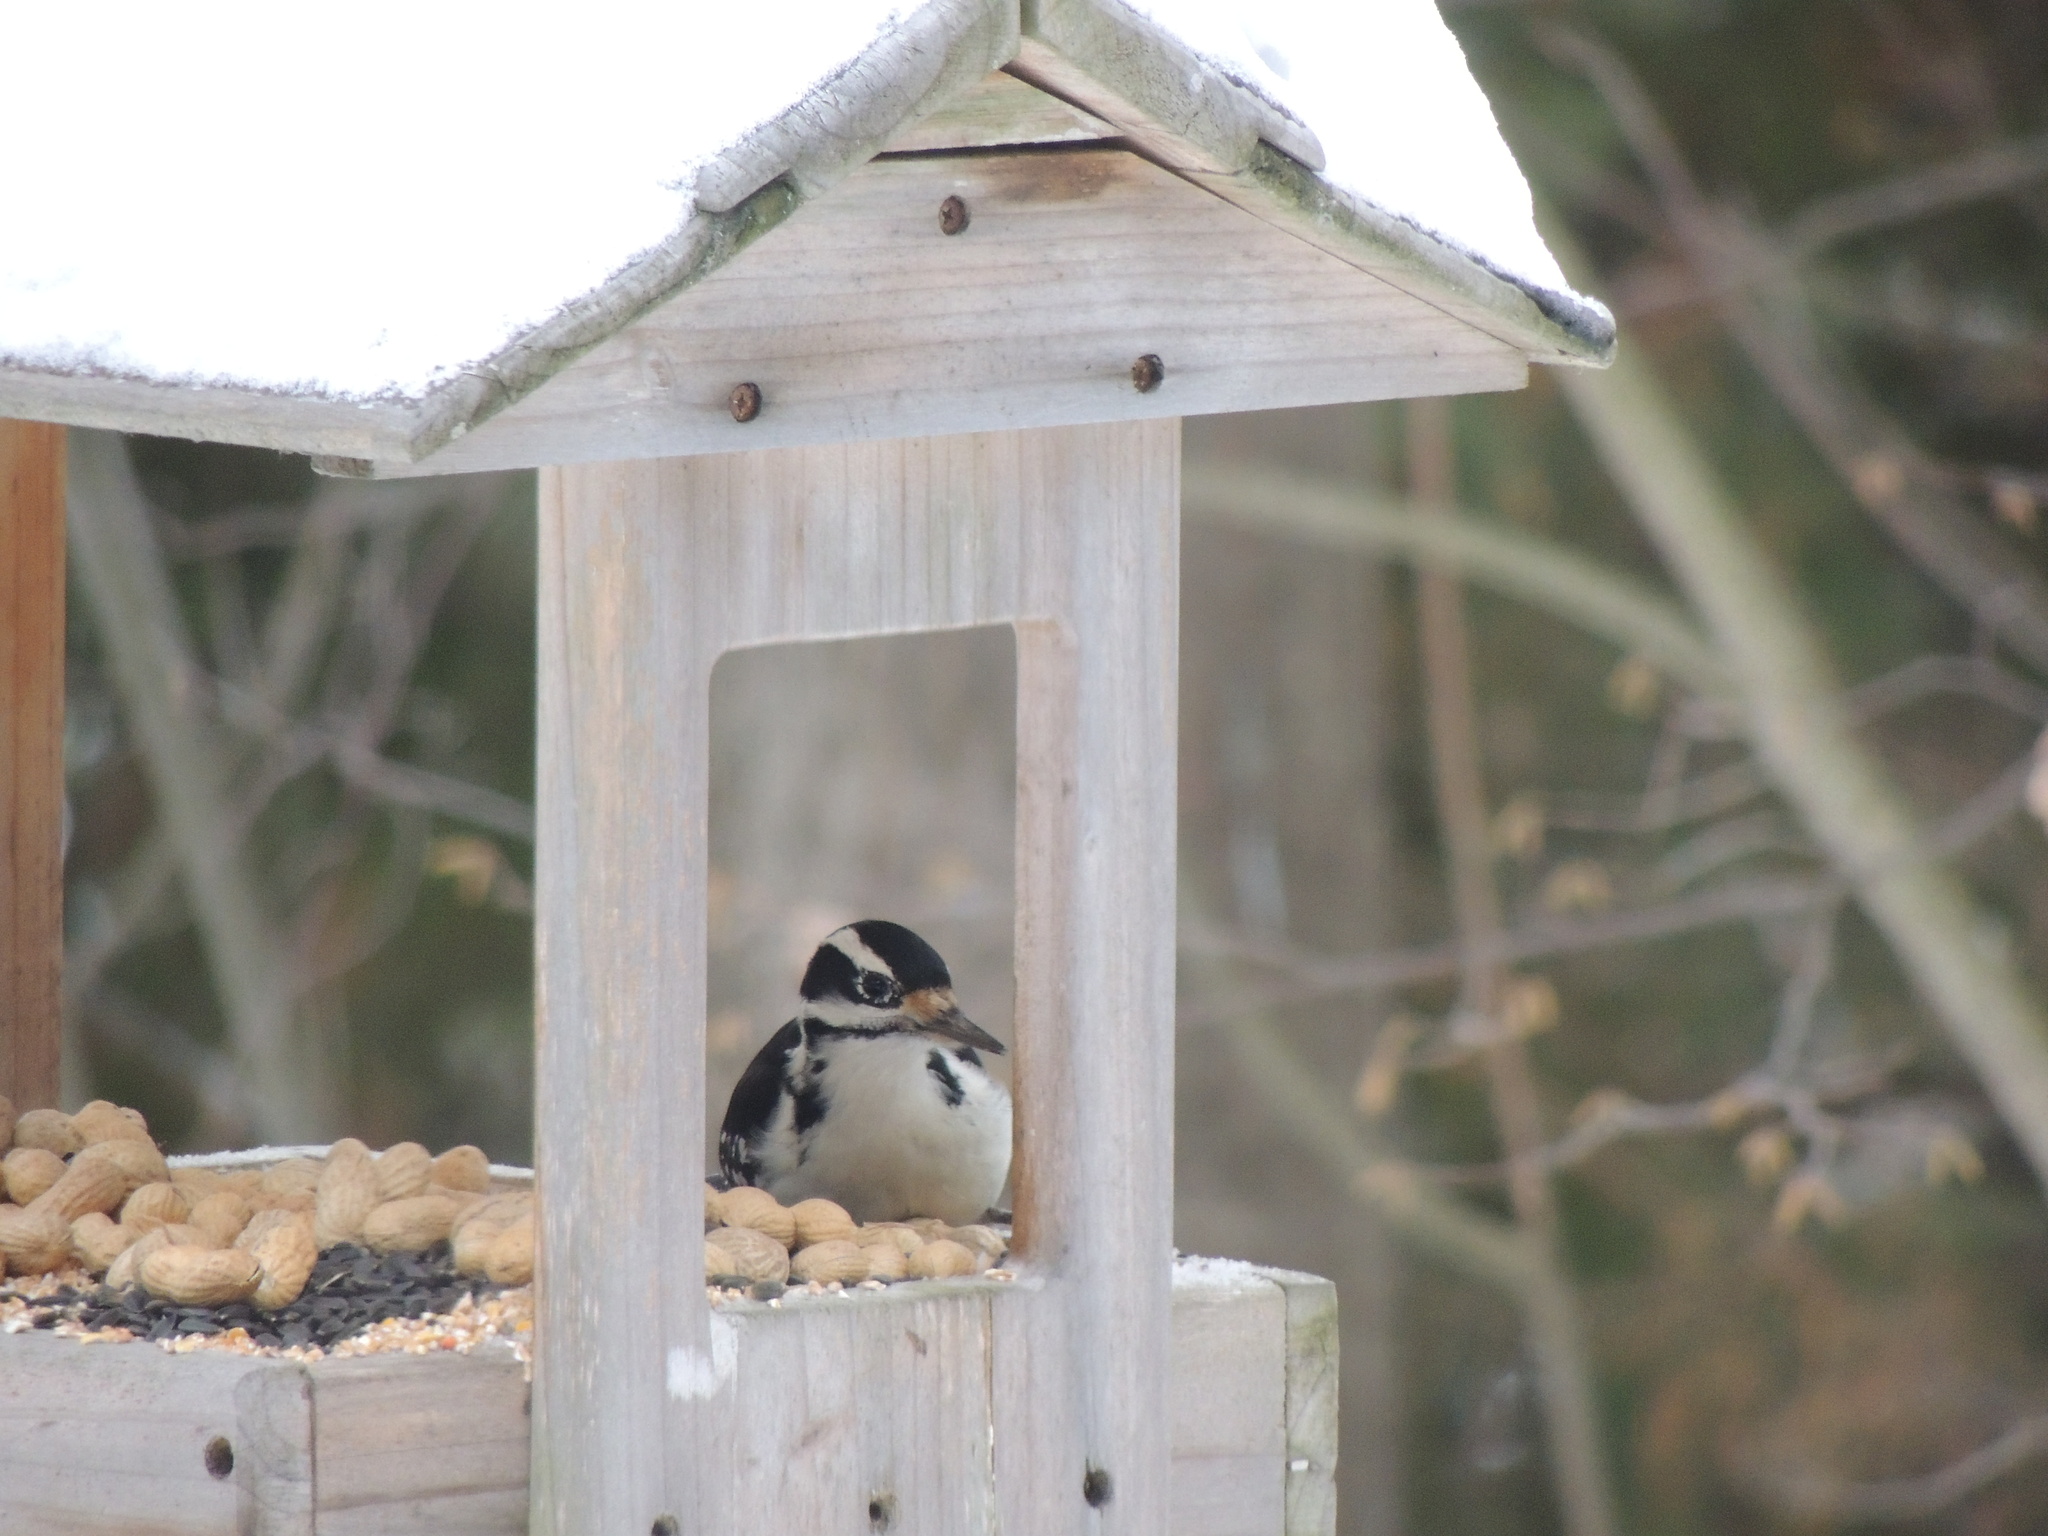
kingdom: Animalia
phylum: Chordata
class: Aves
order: Piciformes
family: Picidae
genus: Leuconotopicus
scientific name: Leuconotopicus villosus
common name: Hairy woodpecker
